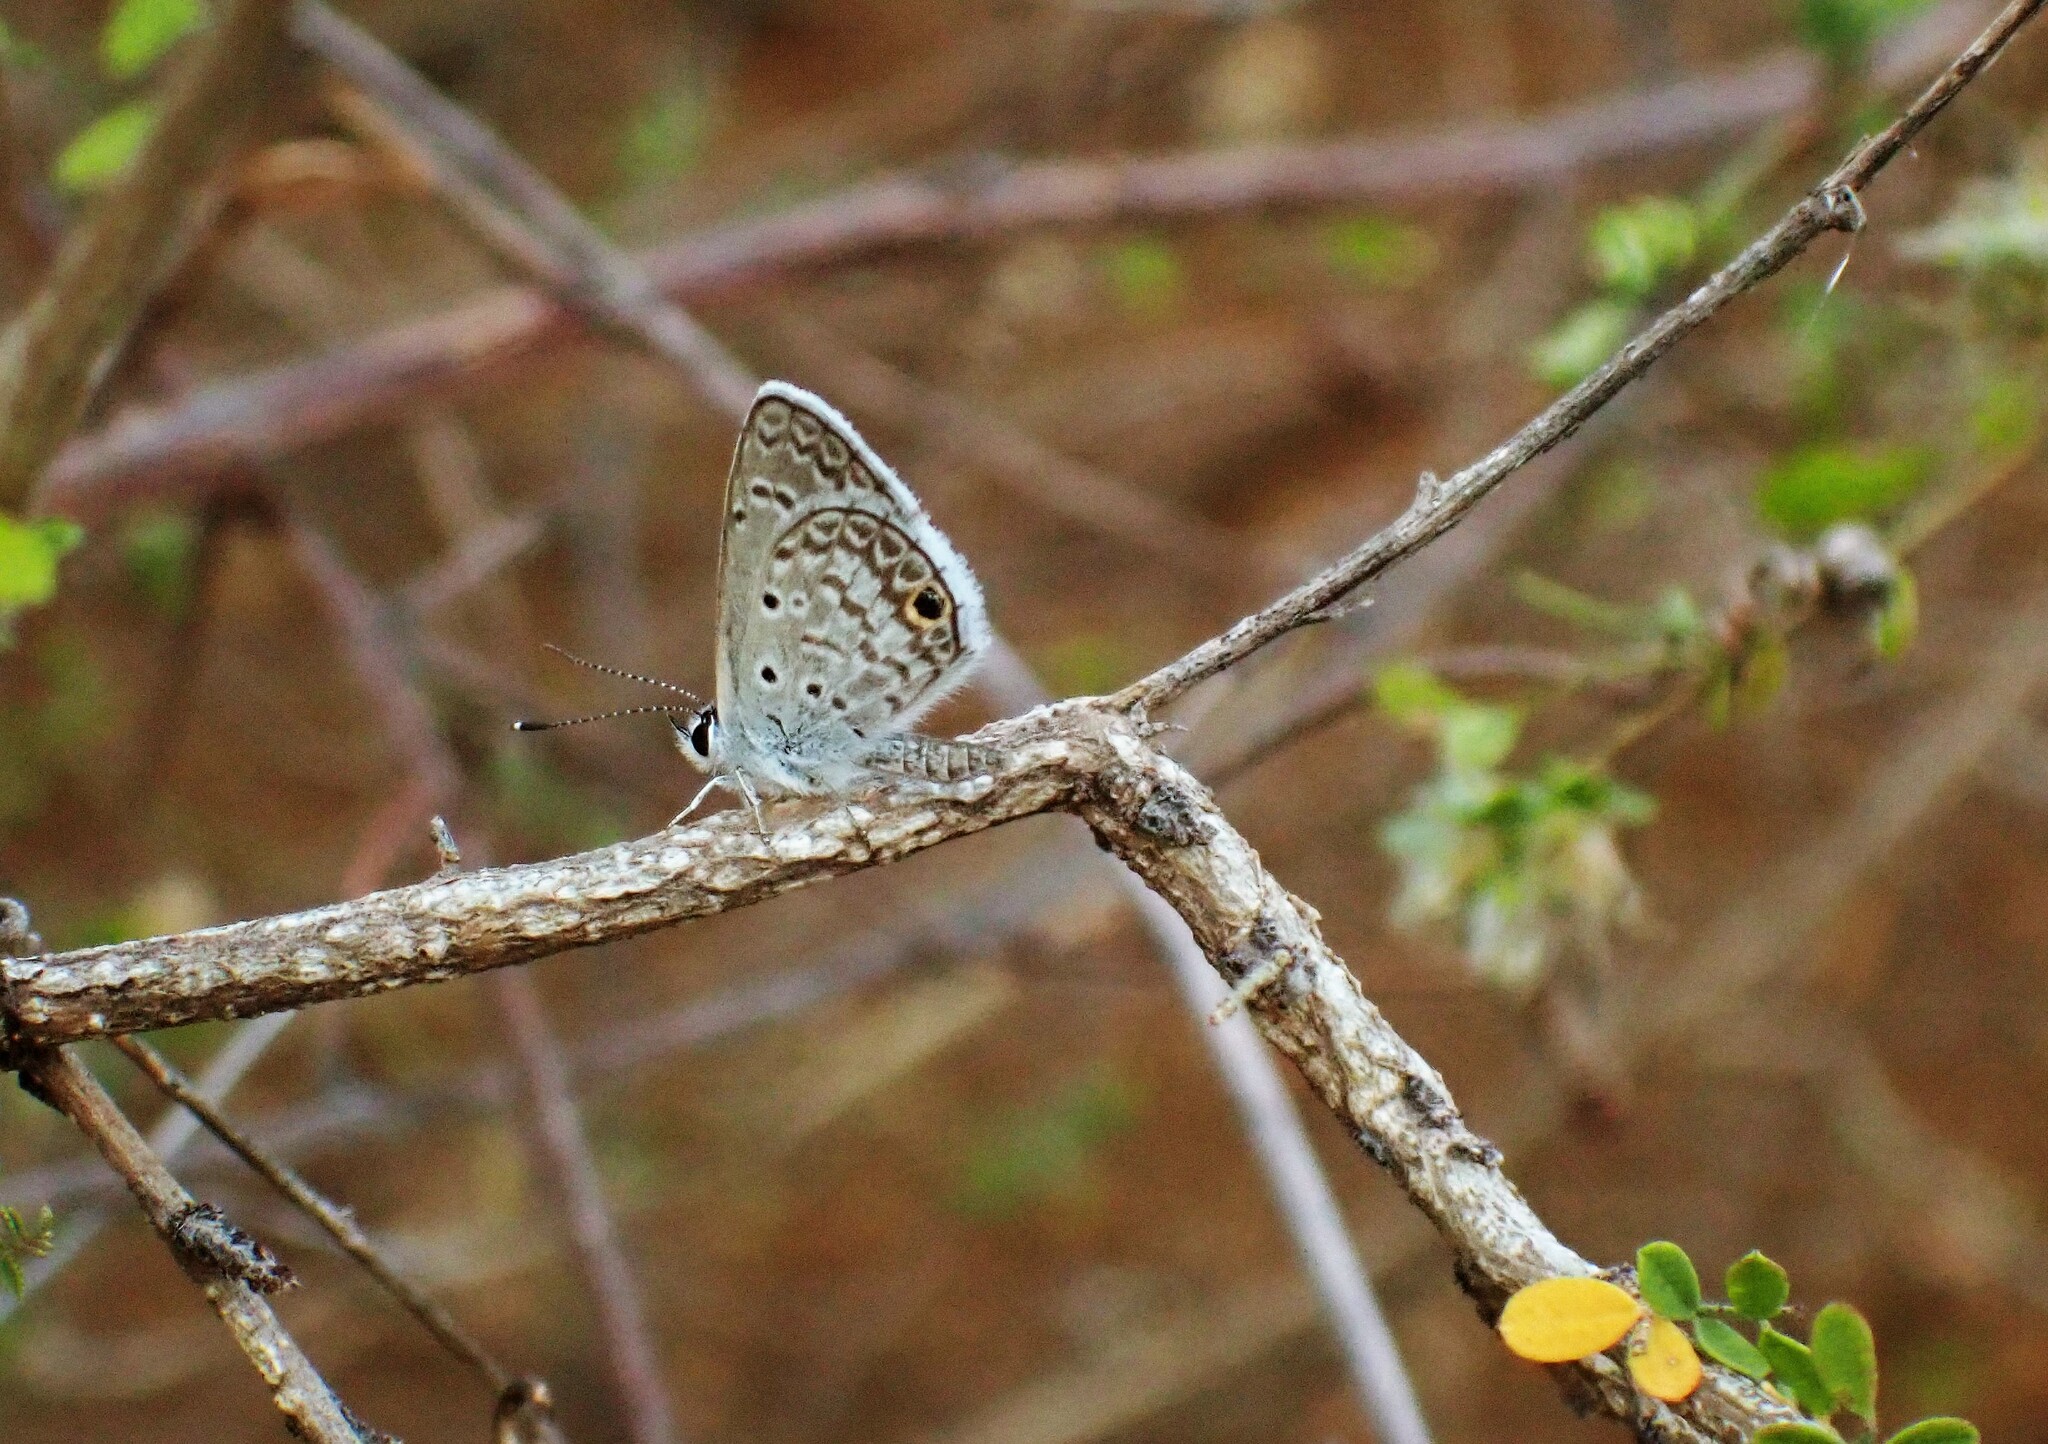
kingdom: Animalia
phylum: Arthropoda
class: Insecta
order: Lepidoptera
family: Lycaenidae
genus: Hemiargus
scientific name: Hemiargus hanno
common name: Common blue
